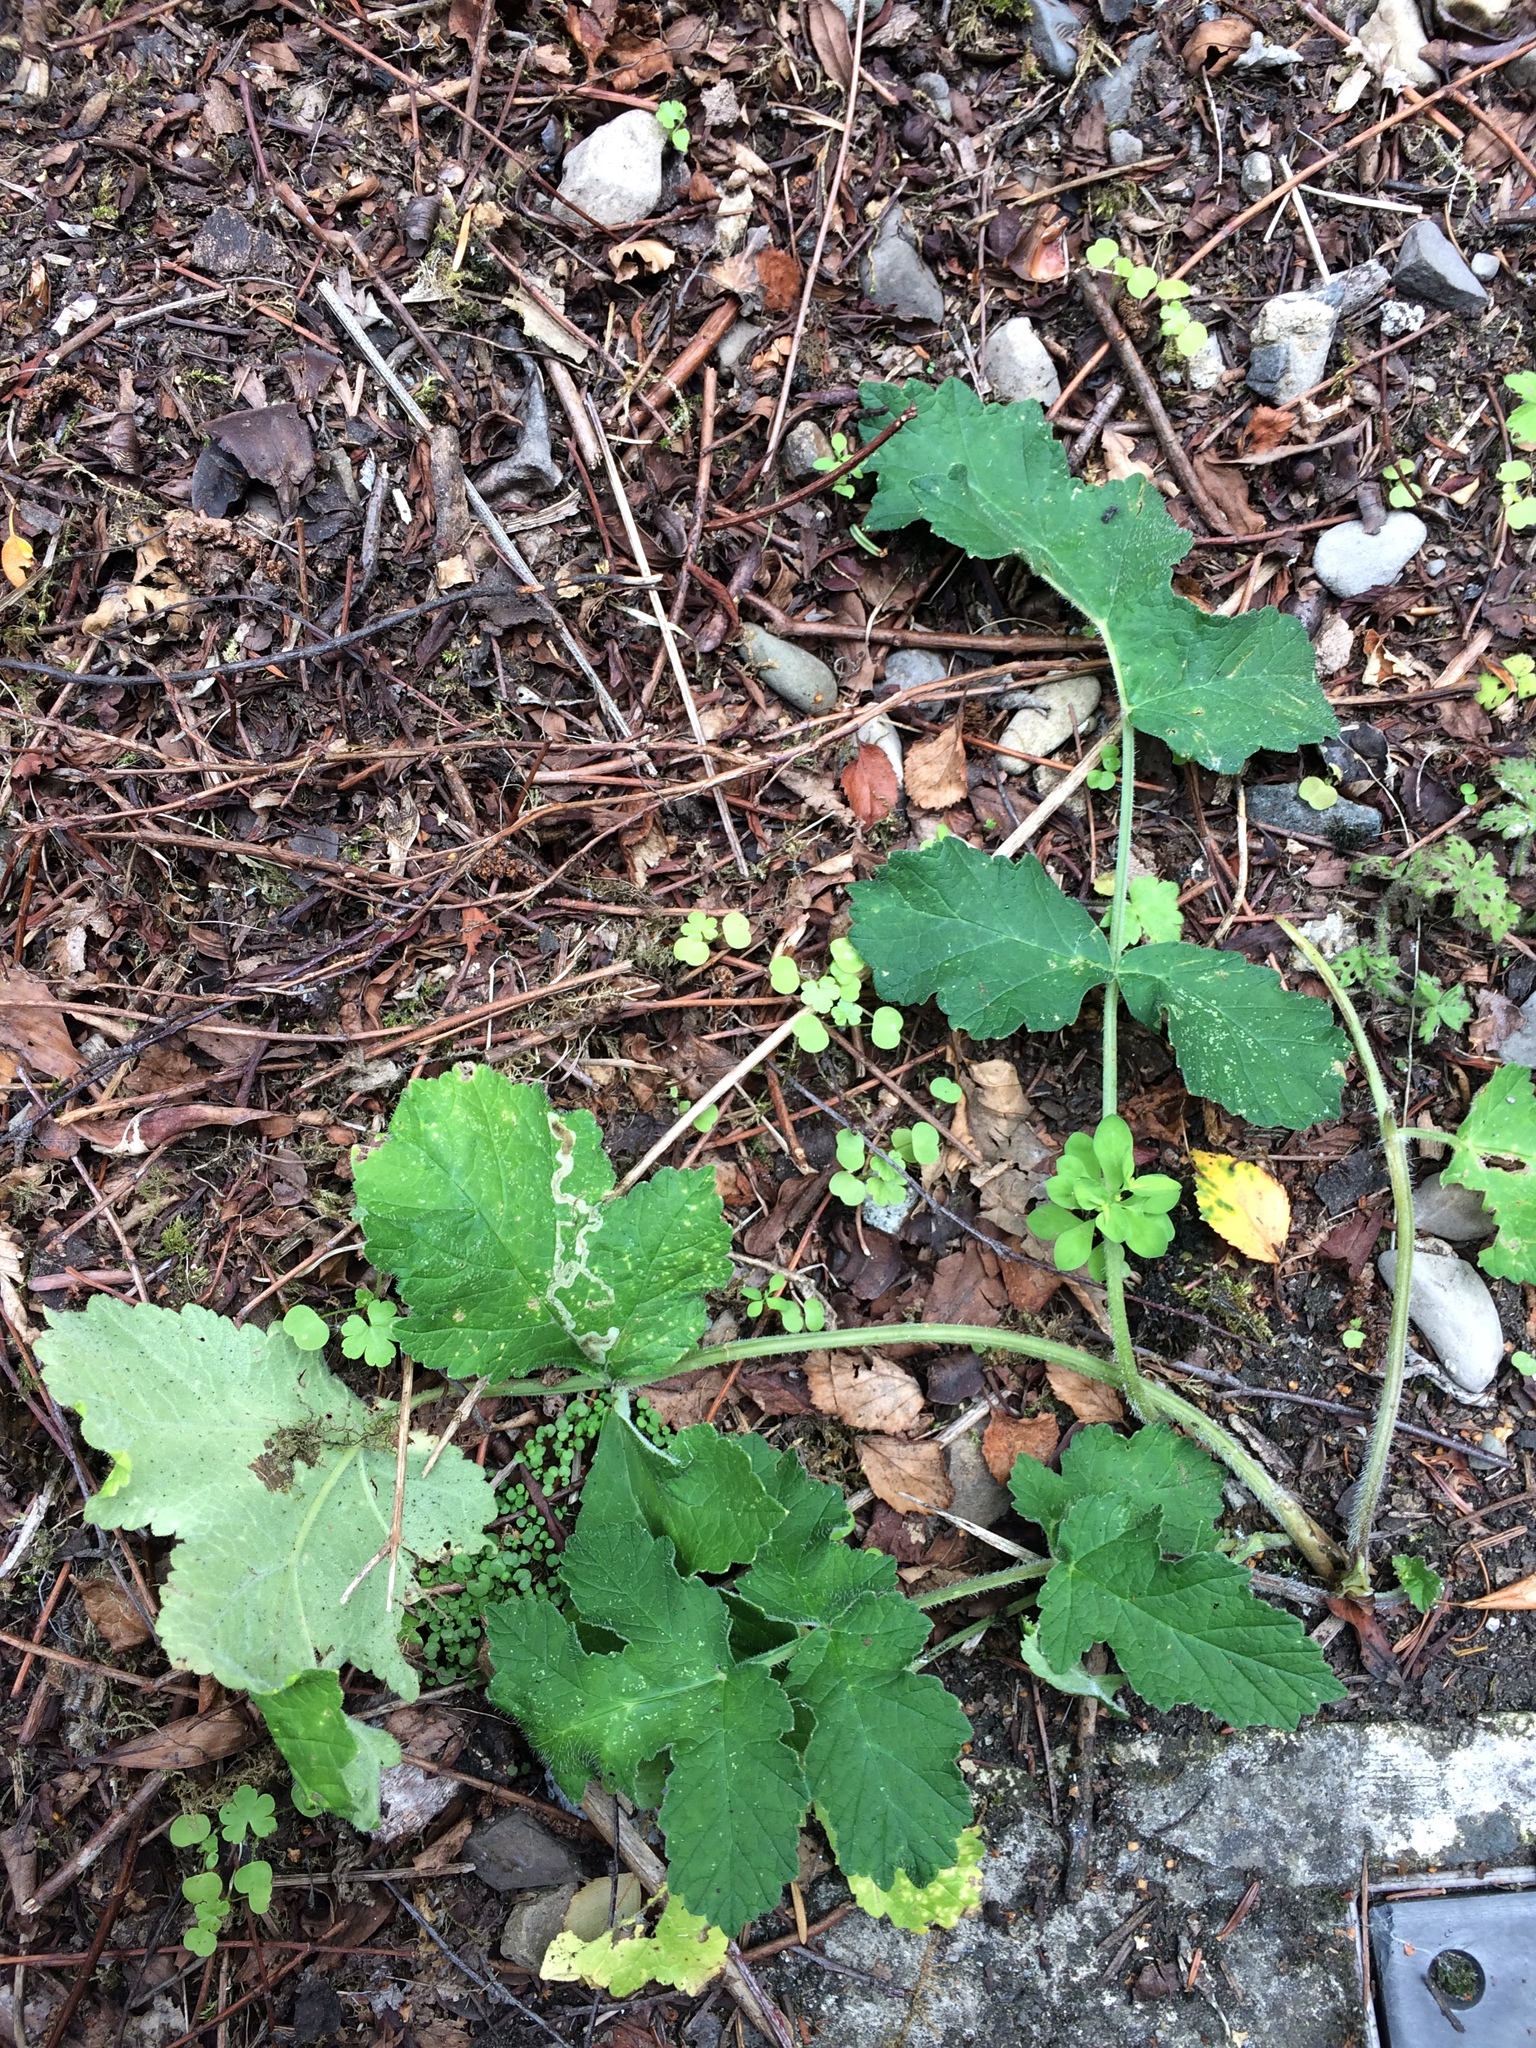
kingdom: Plantae
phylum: Tracheophyta
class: Magnoliopsida
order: Apiales
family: Apiaceae
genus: Heracleum
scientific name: Heracleum sphondylium
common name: Hogweed
